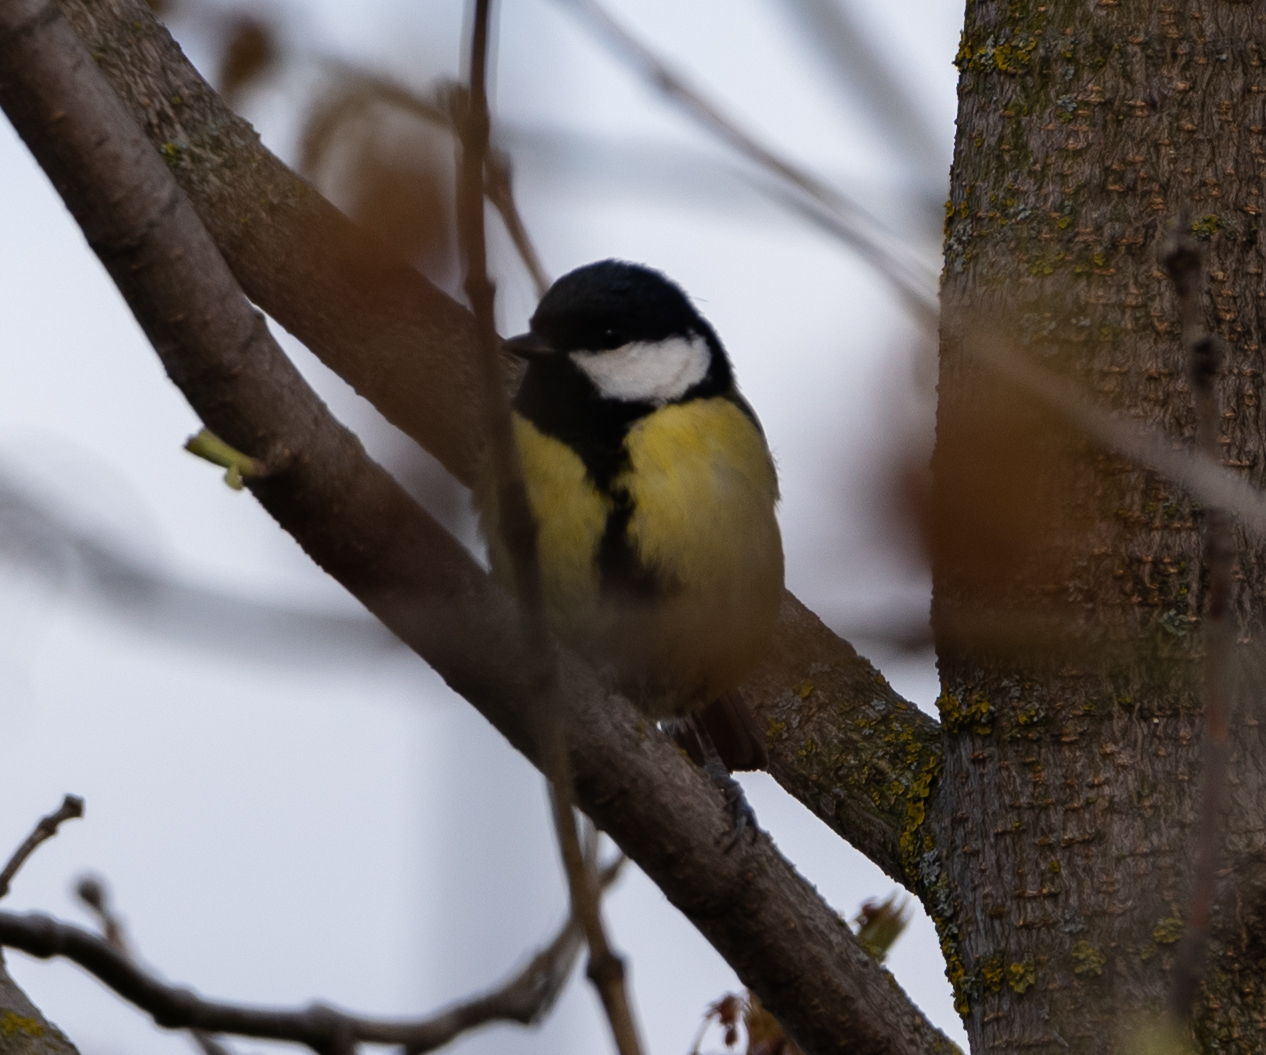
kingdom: Animalia
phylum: Chordata
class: Aves
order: Passeriformes
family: Paridae
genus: Parus
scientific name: Parus major
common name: Great tit
